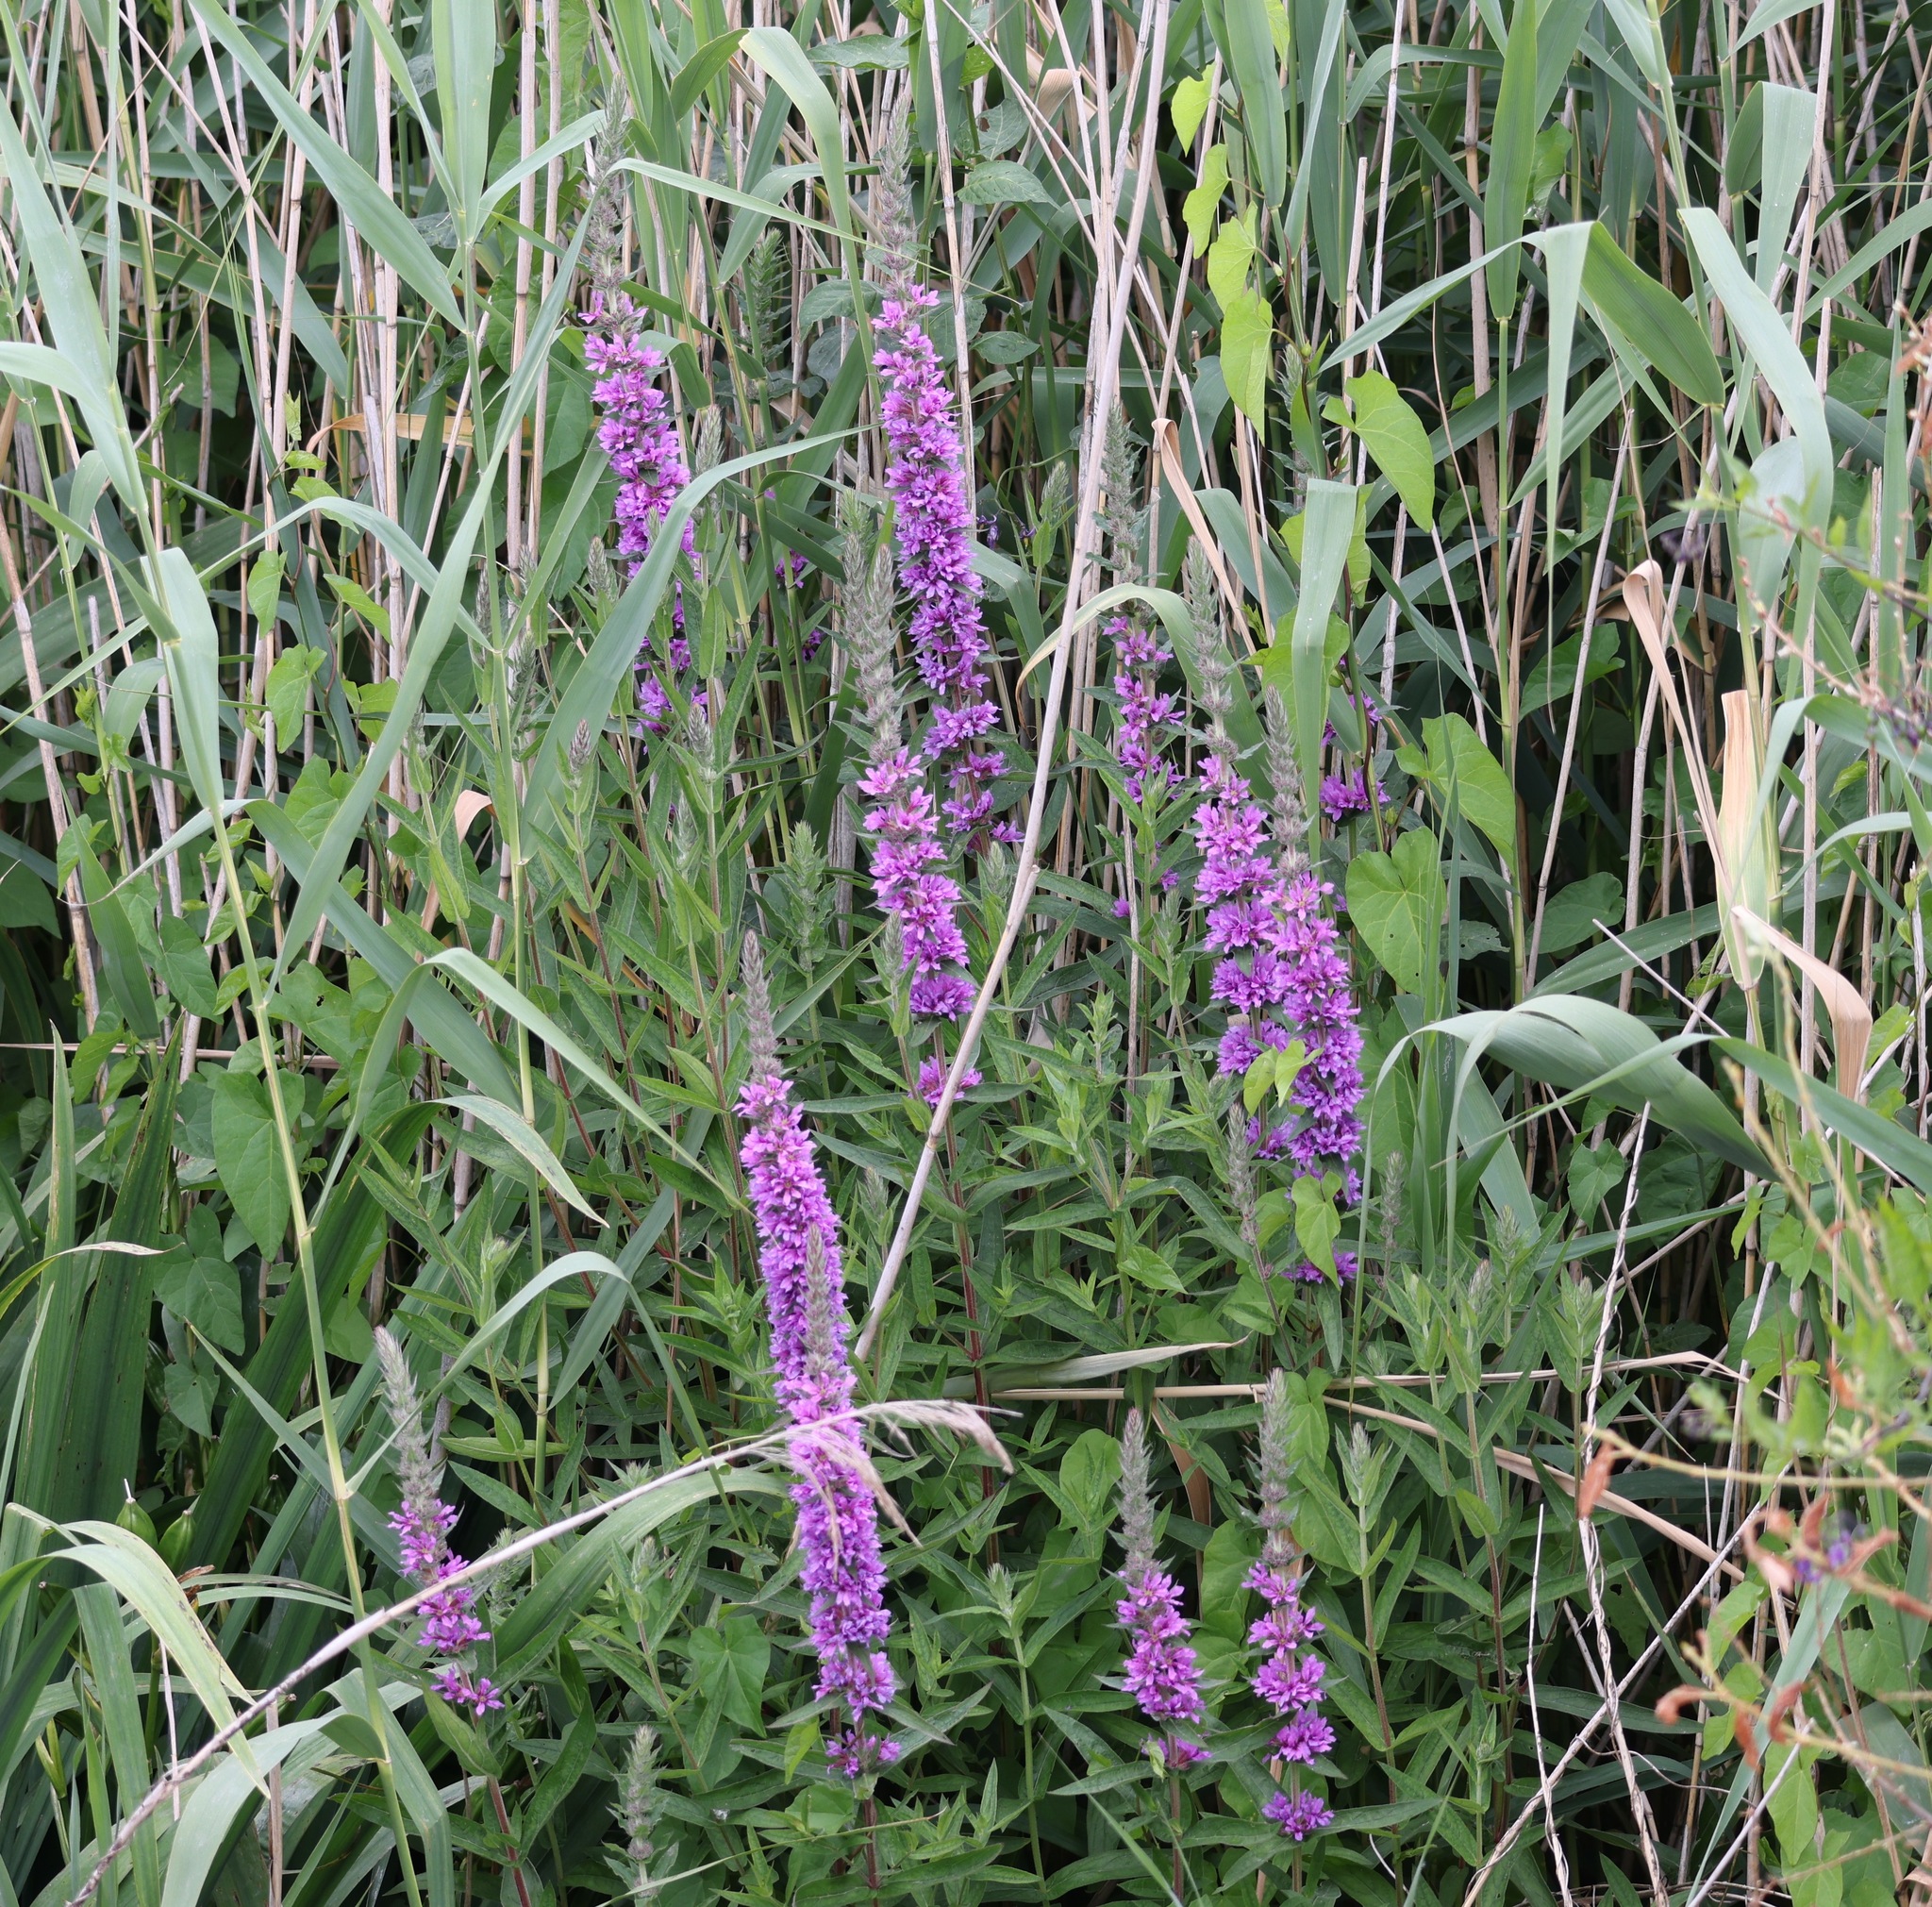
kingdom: Plantae
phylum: Tracheophyta
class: Magnoliopsida
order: Myrtales
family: Lythraceae
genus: Lythrum
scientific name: Lythrum salicaria
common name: Purple loosestrife
